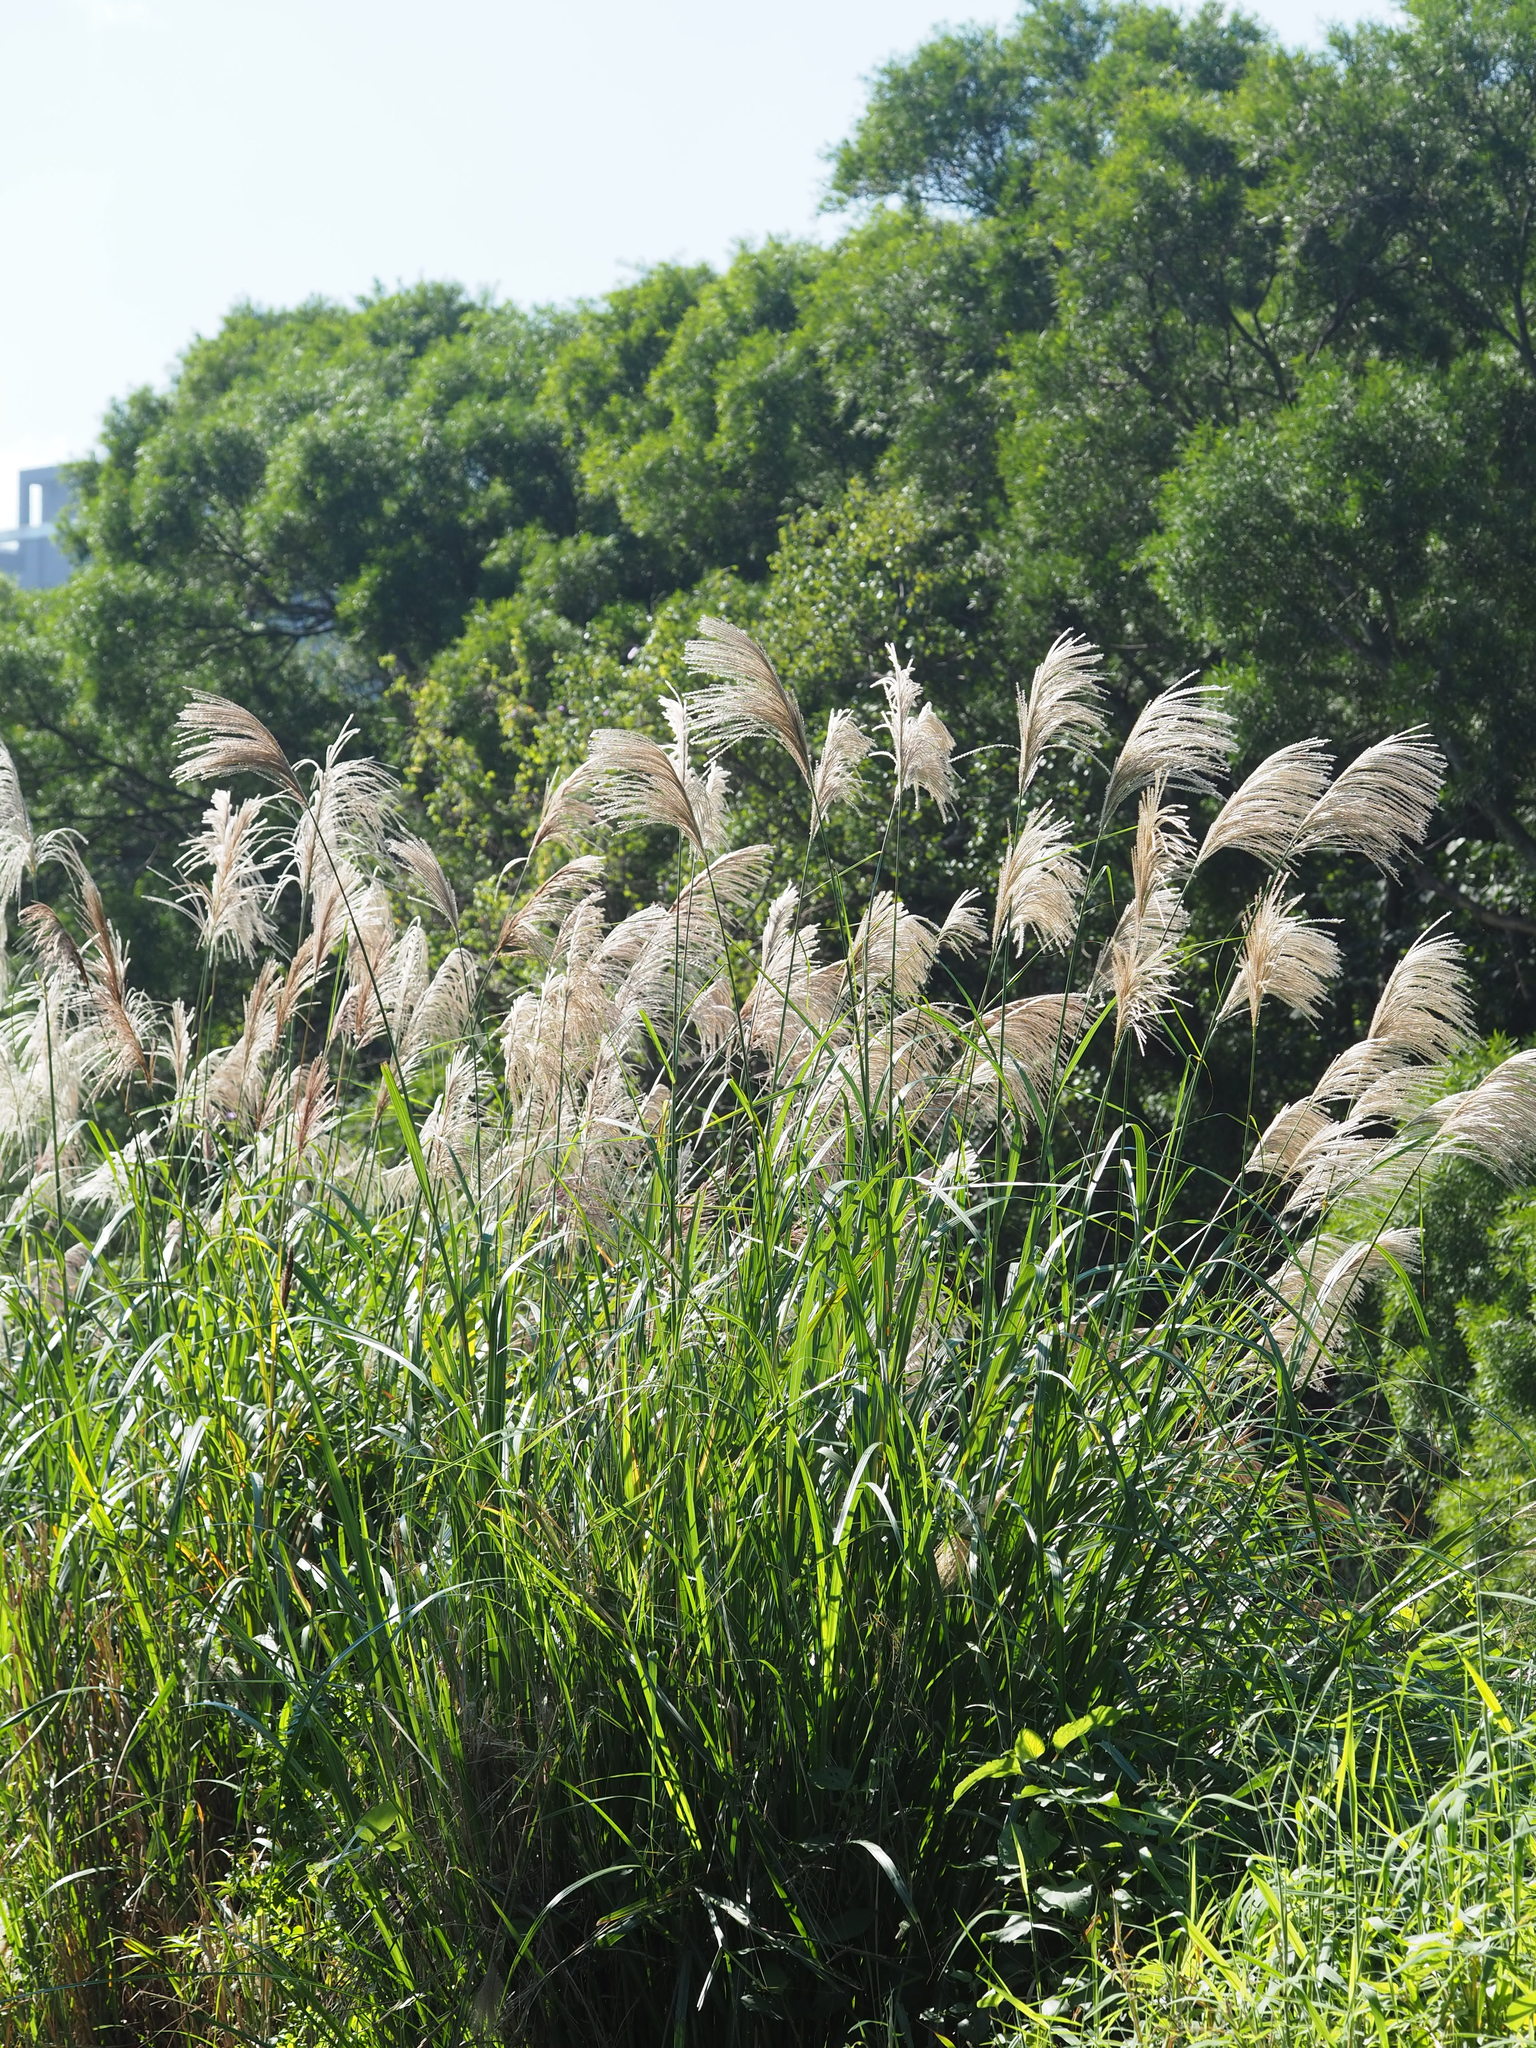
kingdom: Plantae
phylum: Tracheophyta
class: Liliopsida
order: Poales
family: Poaceae
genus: Miscanthus
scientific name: Miscanthus sinensis
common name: Chinese silvergrass
